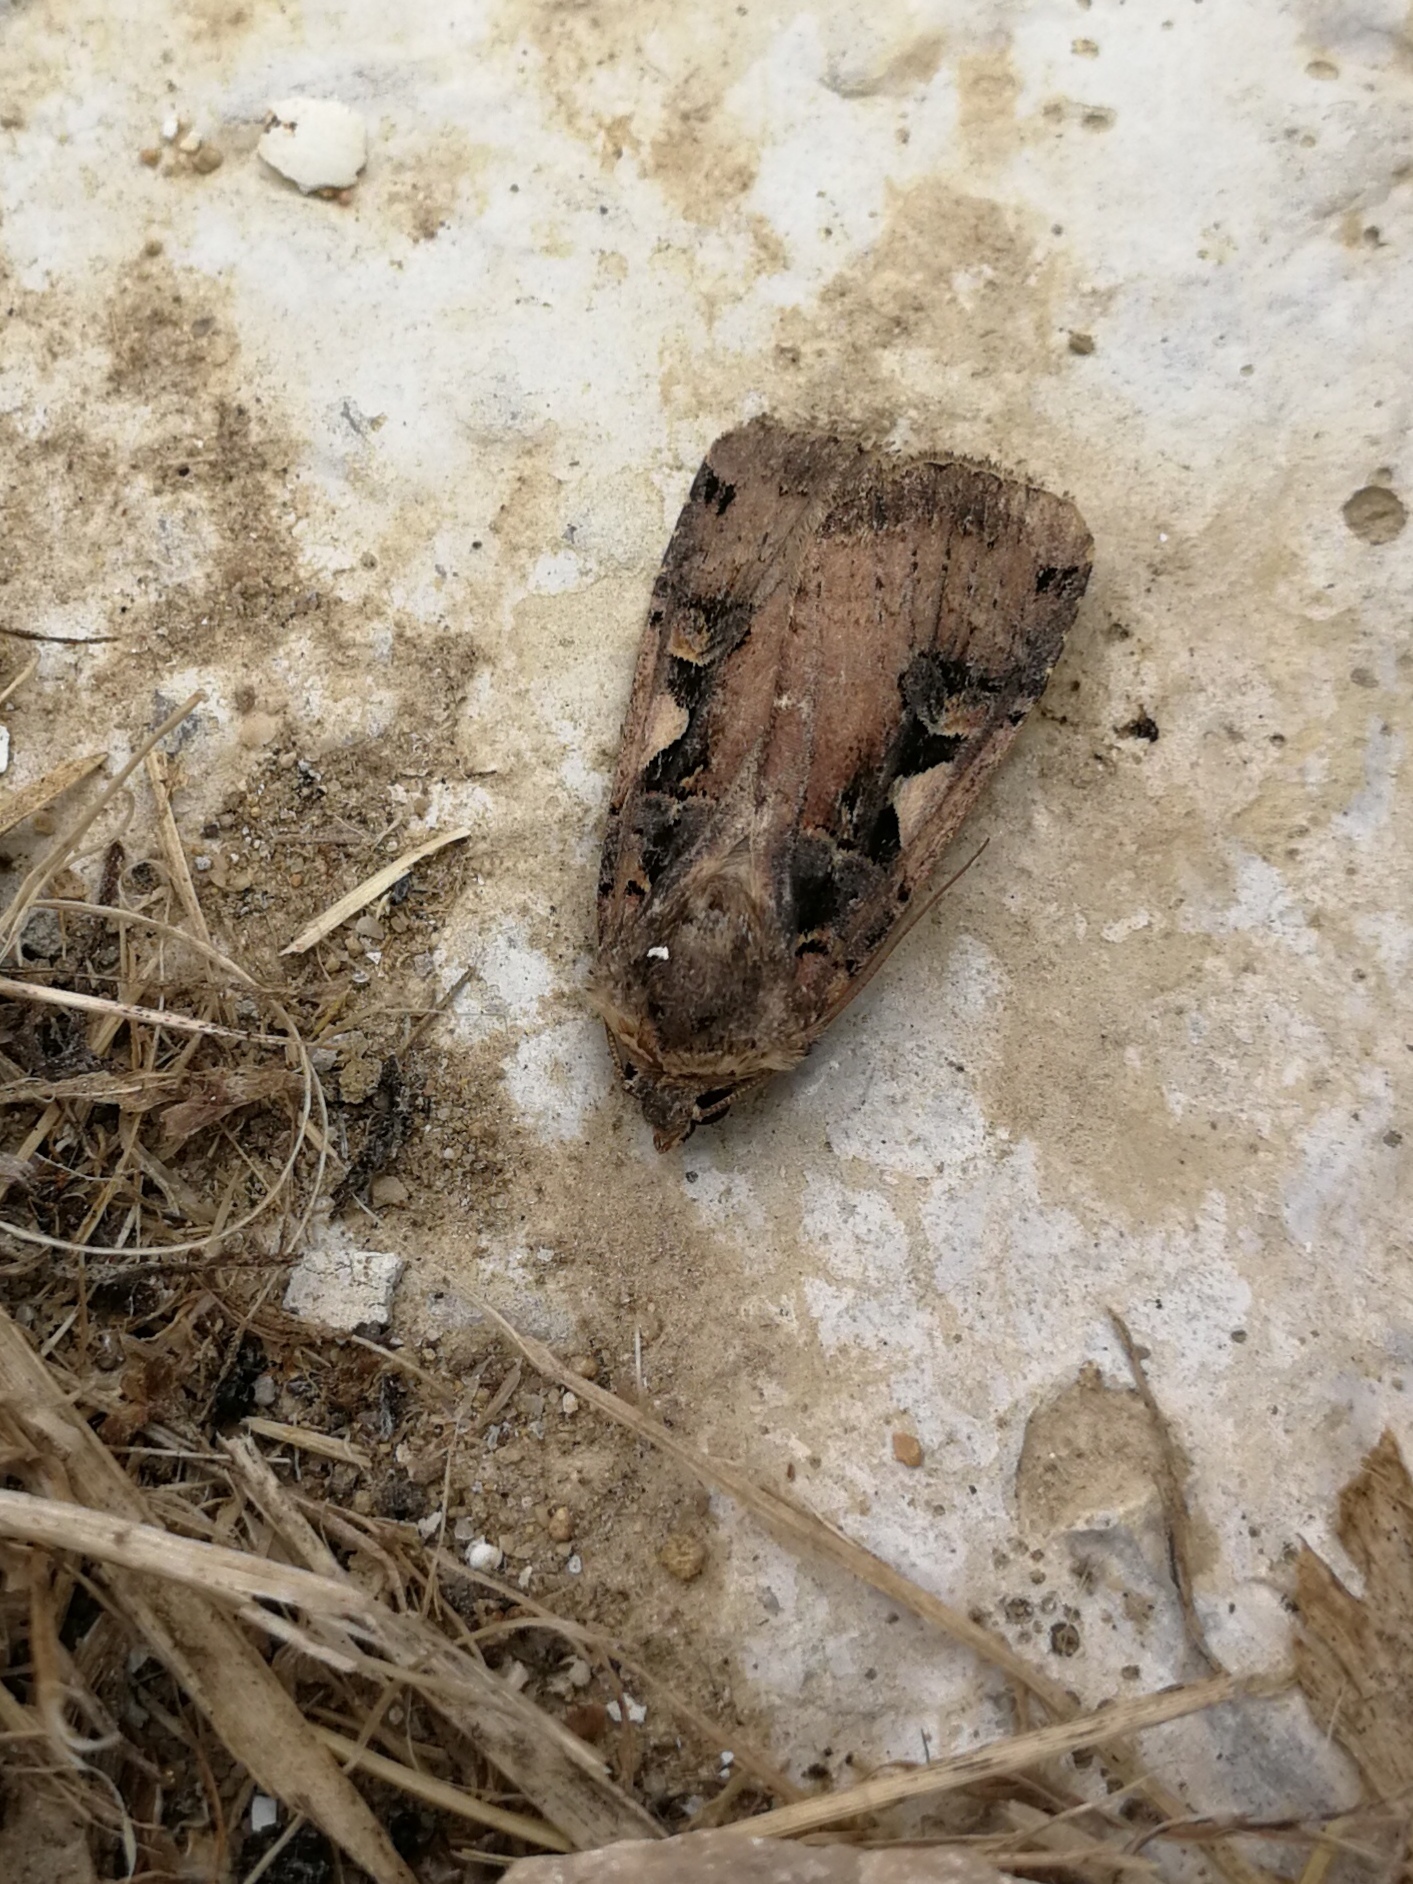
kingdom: Animalia
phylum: Arthropoda
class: Insecta
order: Lepidoptera
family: Noctuidae
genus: Xestia
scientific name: Xestia c-nigrum
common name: Setaceous hebrew character
